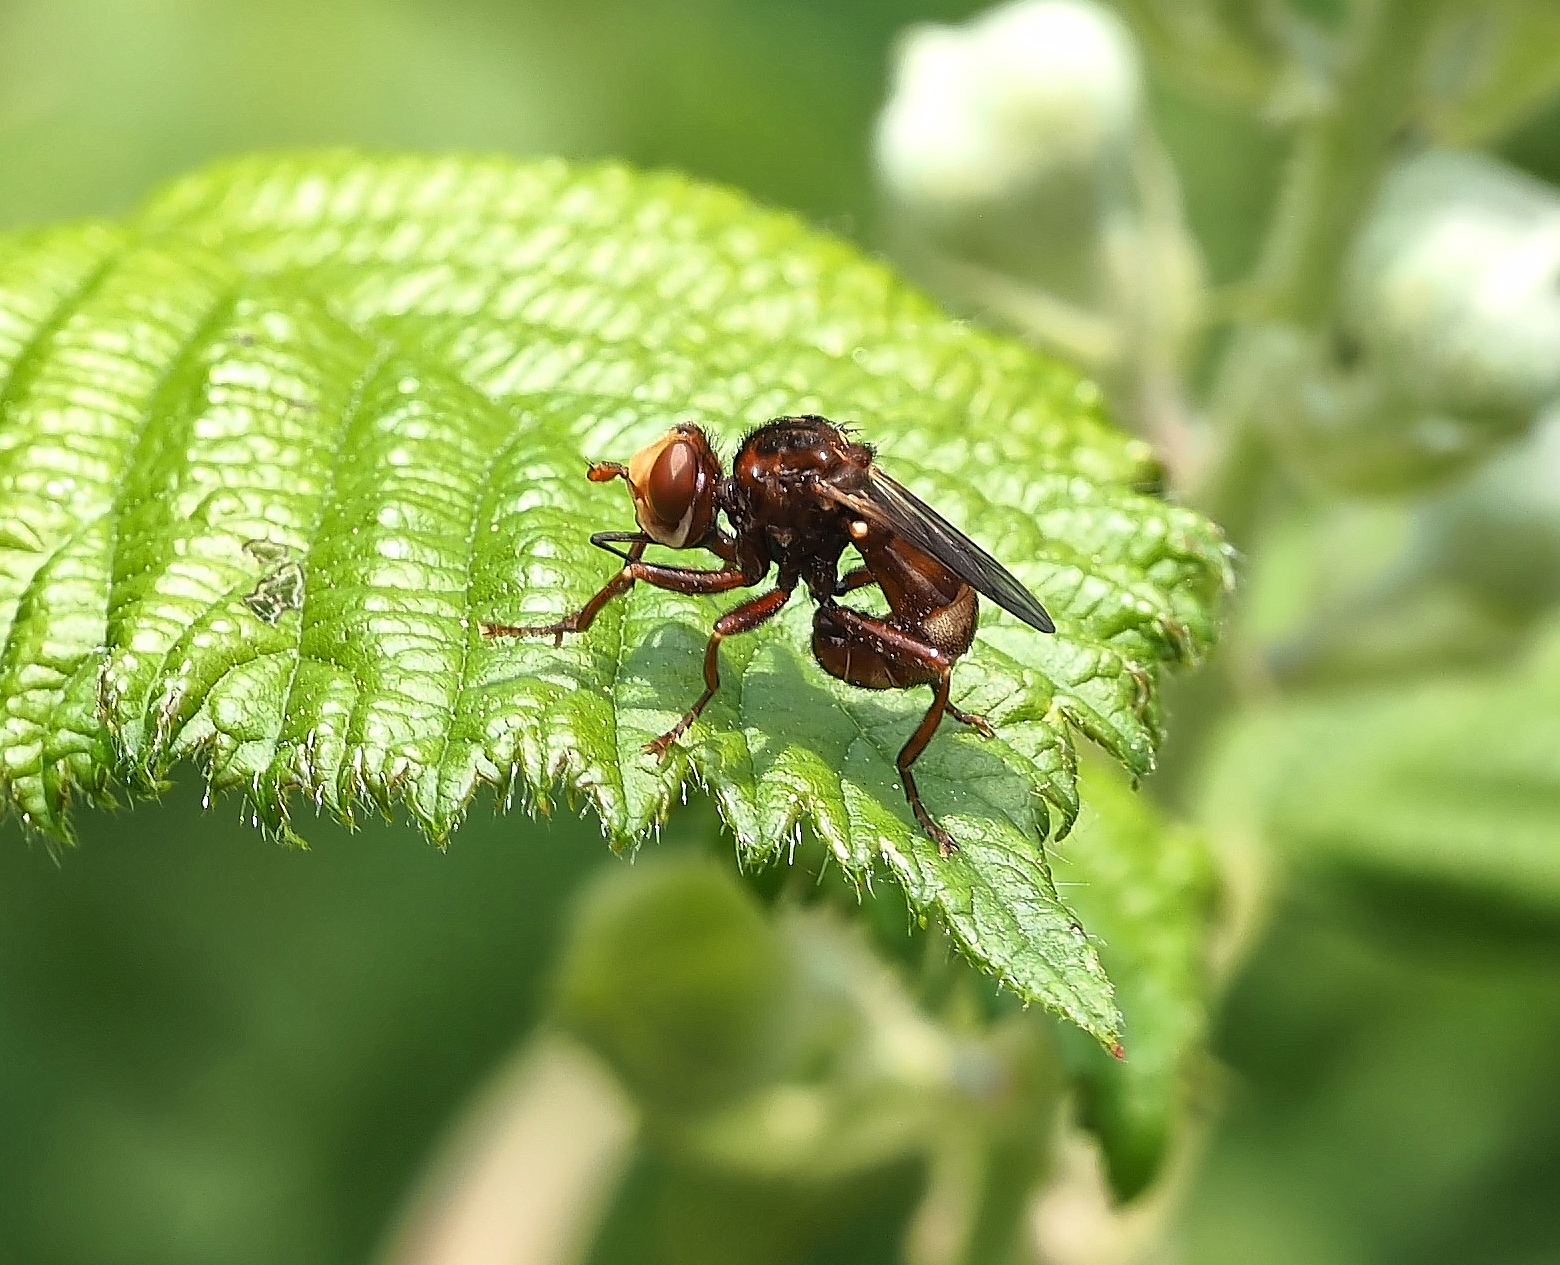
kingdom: Animalia
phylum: Arthropoda
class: Insecta
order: Diptera
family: Conopidae
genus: Sicus
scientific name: Sicus ferrugineus
